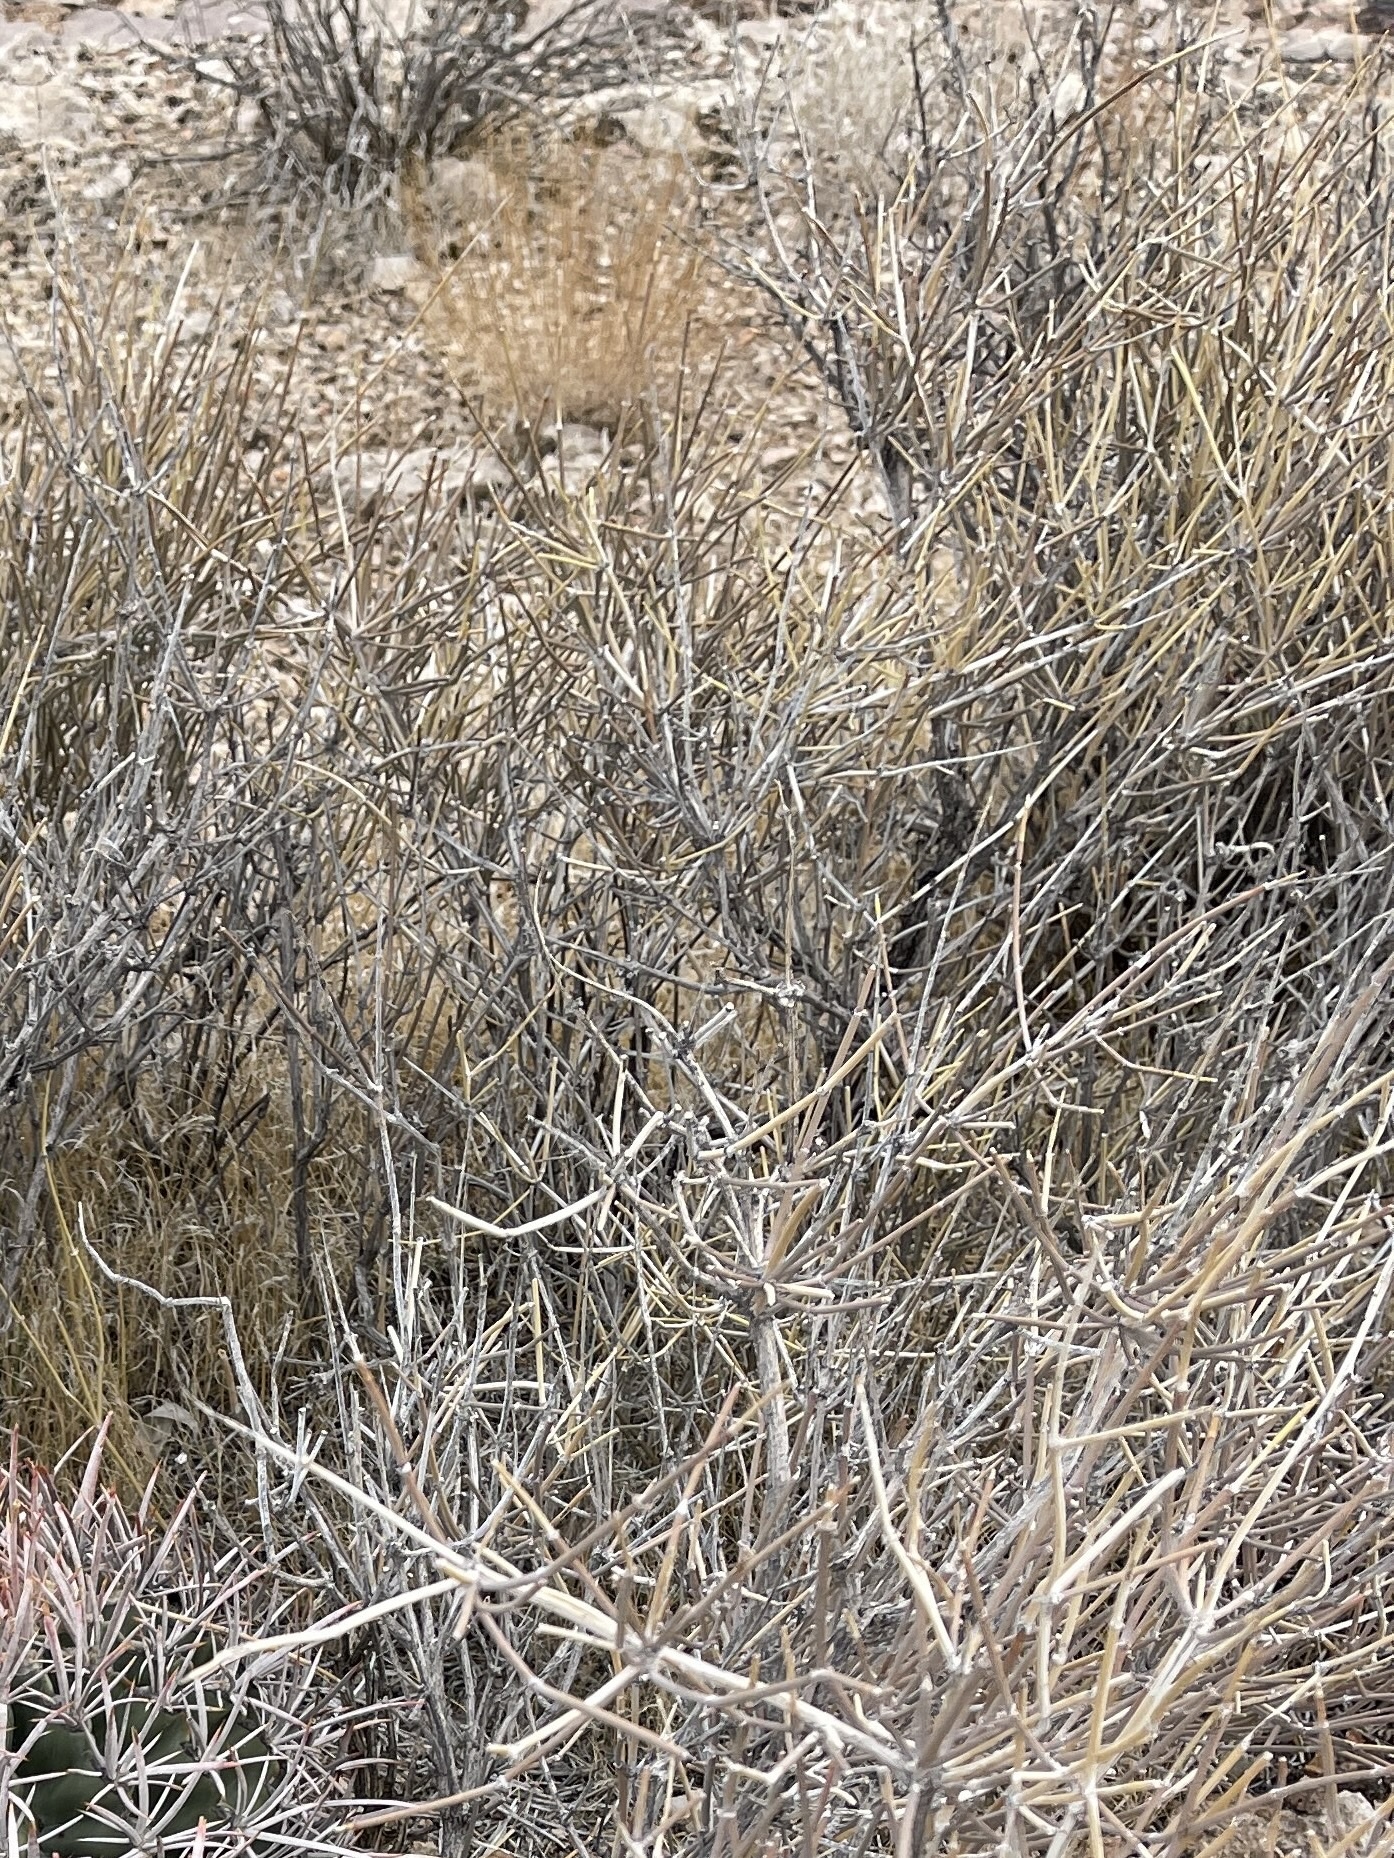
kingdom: Plantae
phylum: Tracheophyta
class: Gnetopsida
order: Ephedrales
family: Ephedraceae
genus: Ephedra
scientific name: Ephedra nevadensis
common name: Gray ephedra
